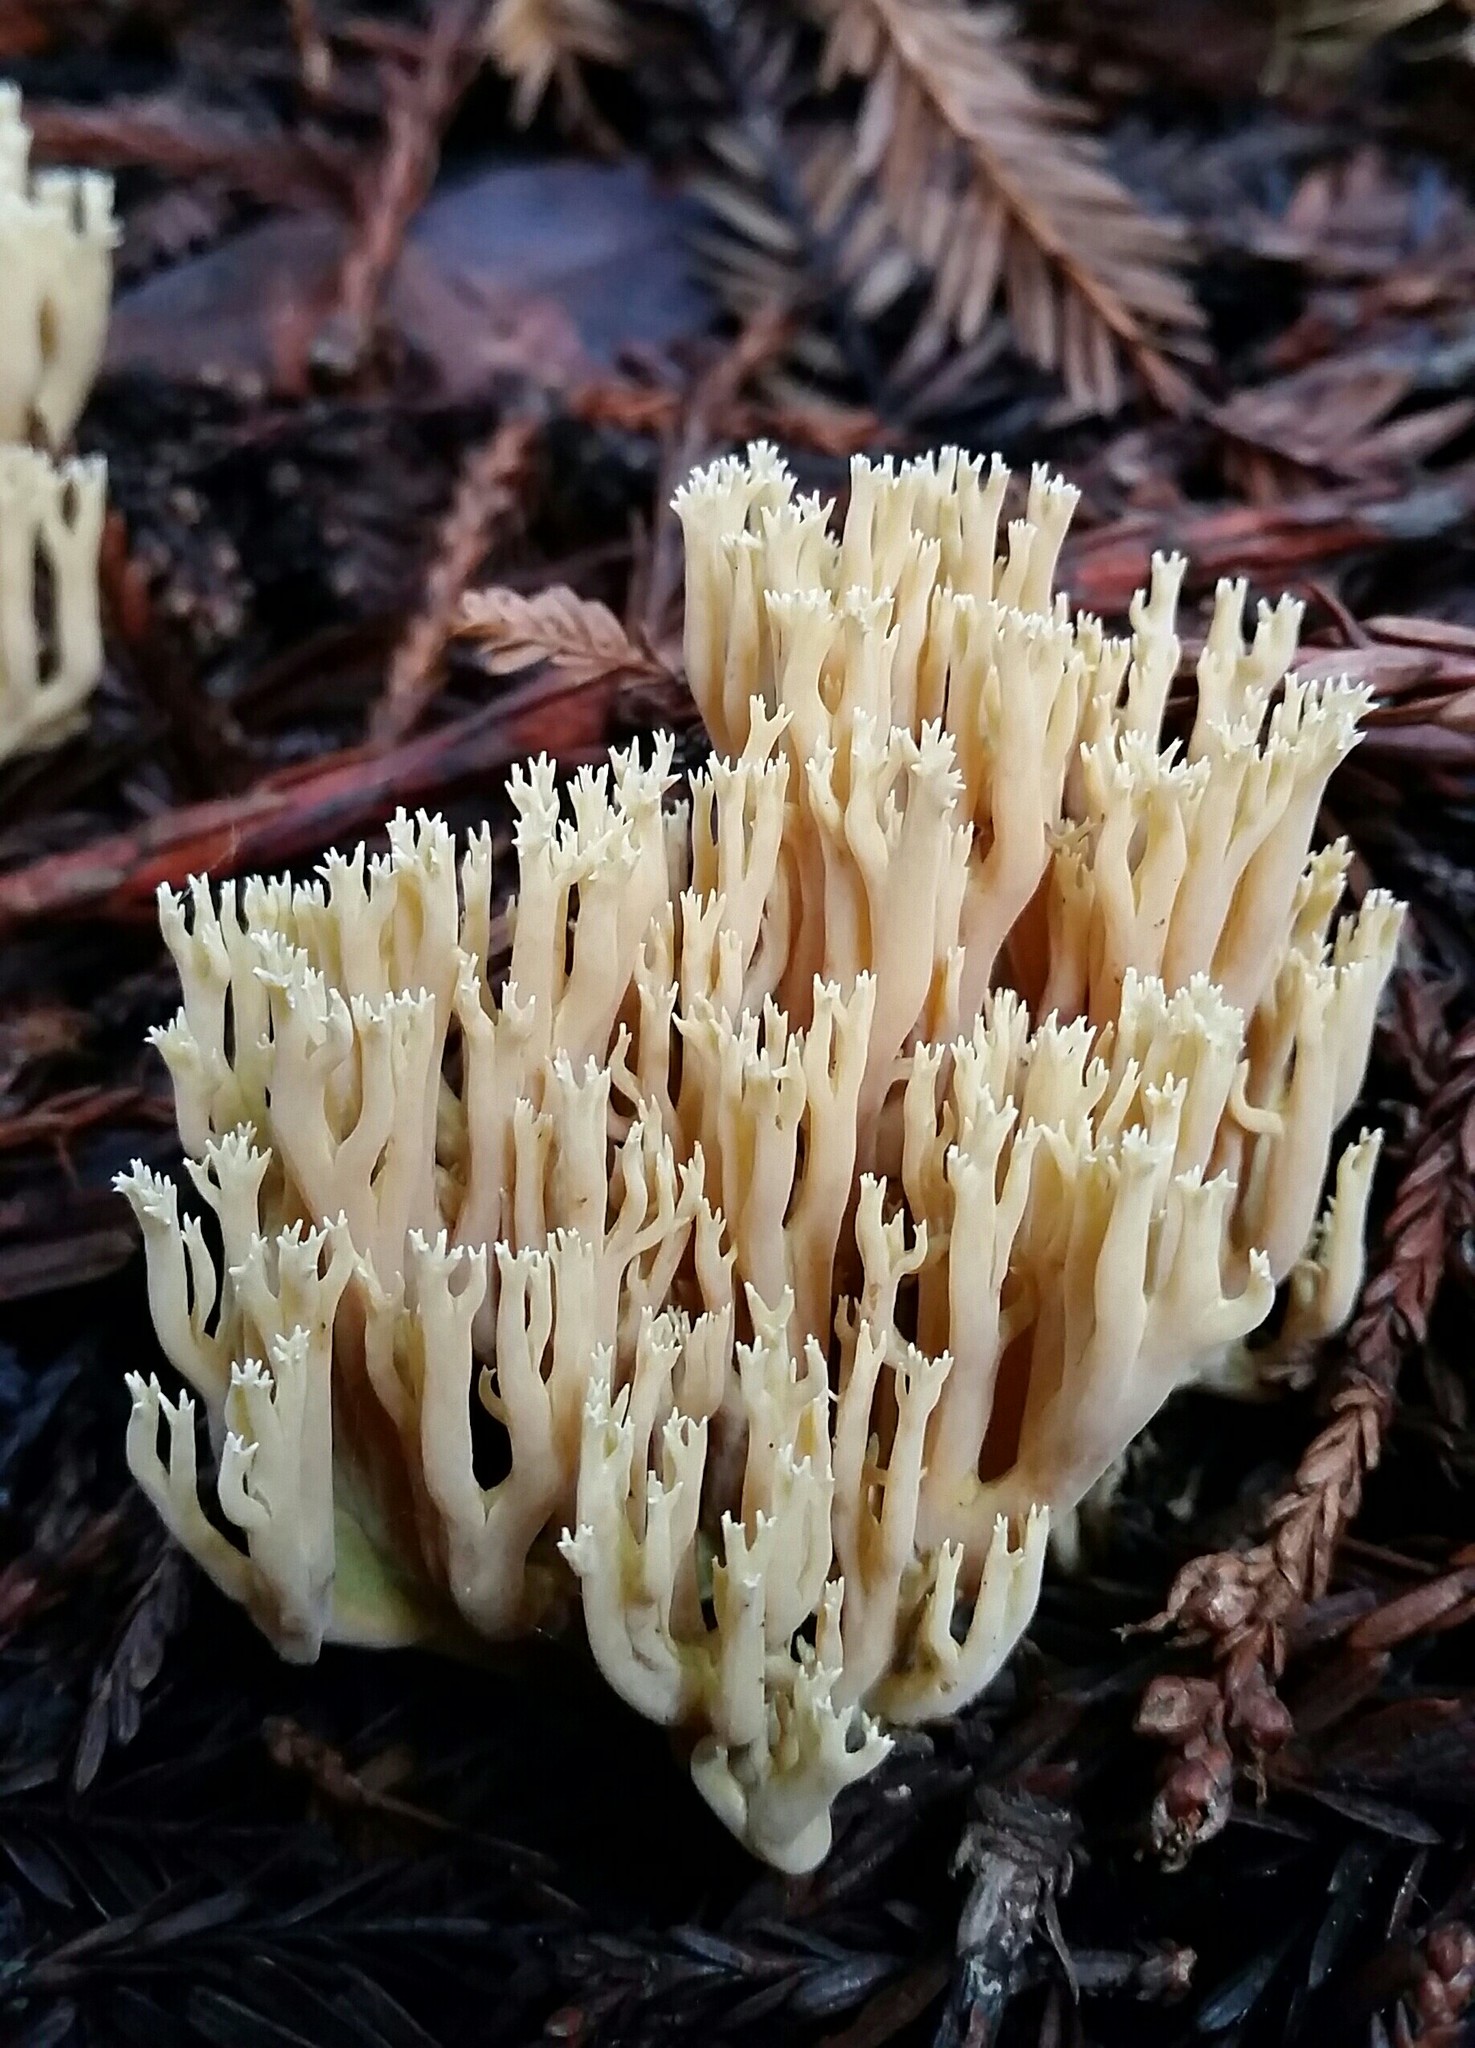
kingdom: Fungi
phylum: Basidiomycota
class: Agaricomycetes
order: Gomphales
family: Gomphaceae
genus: Ramaria
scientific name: Ramaria stricta
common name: Upright coral
